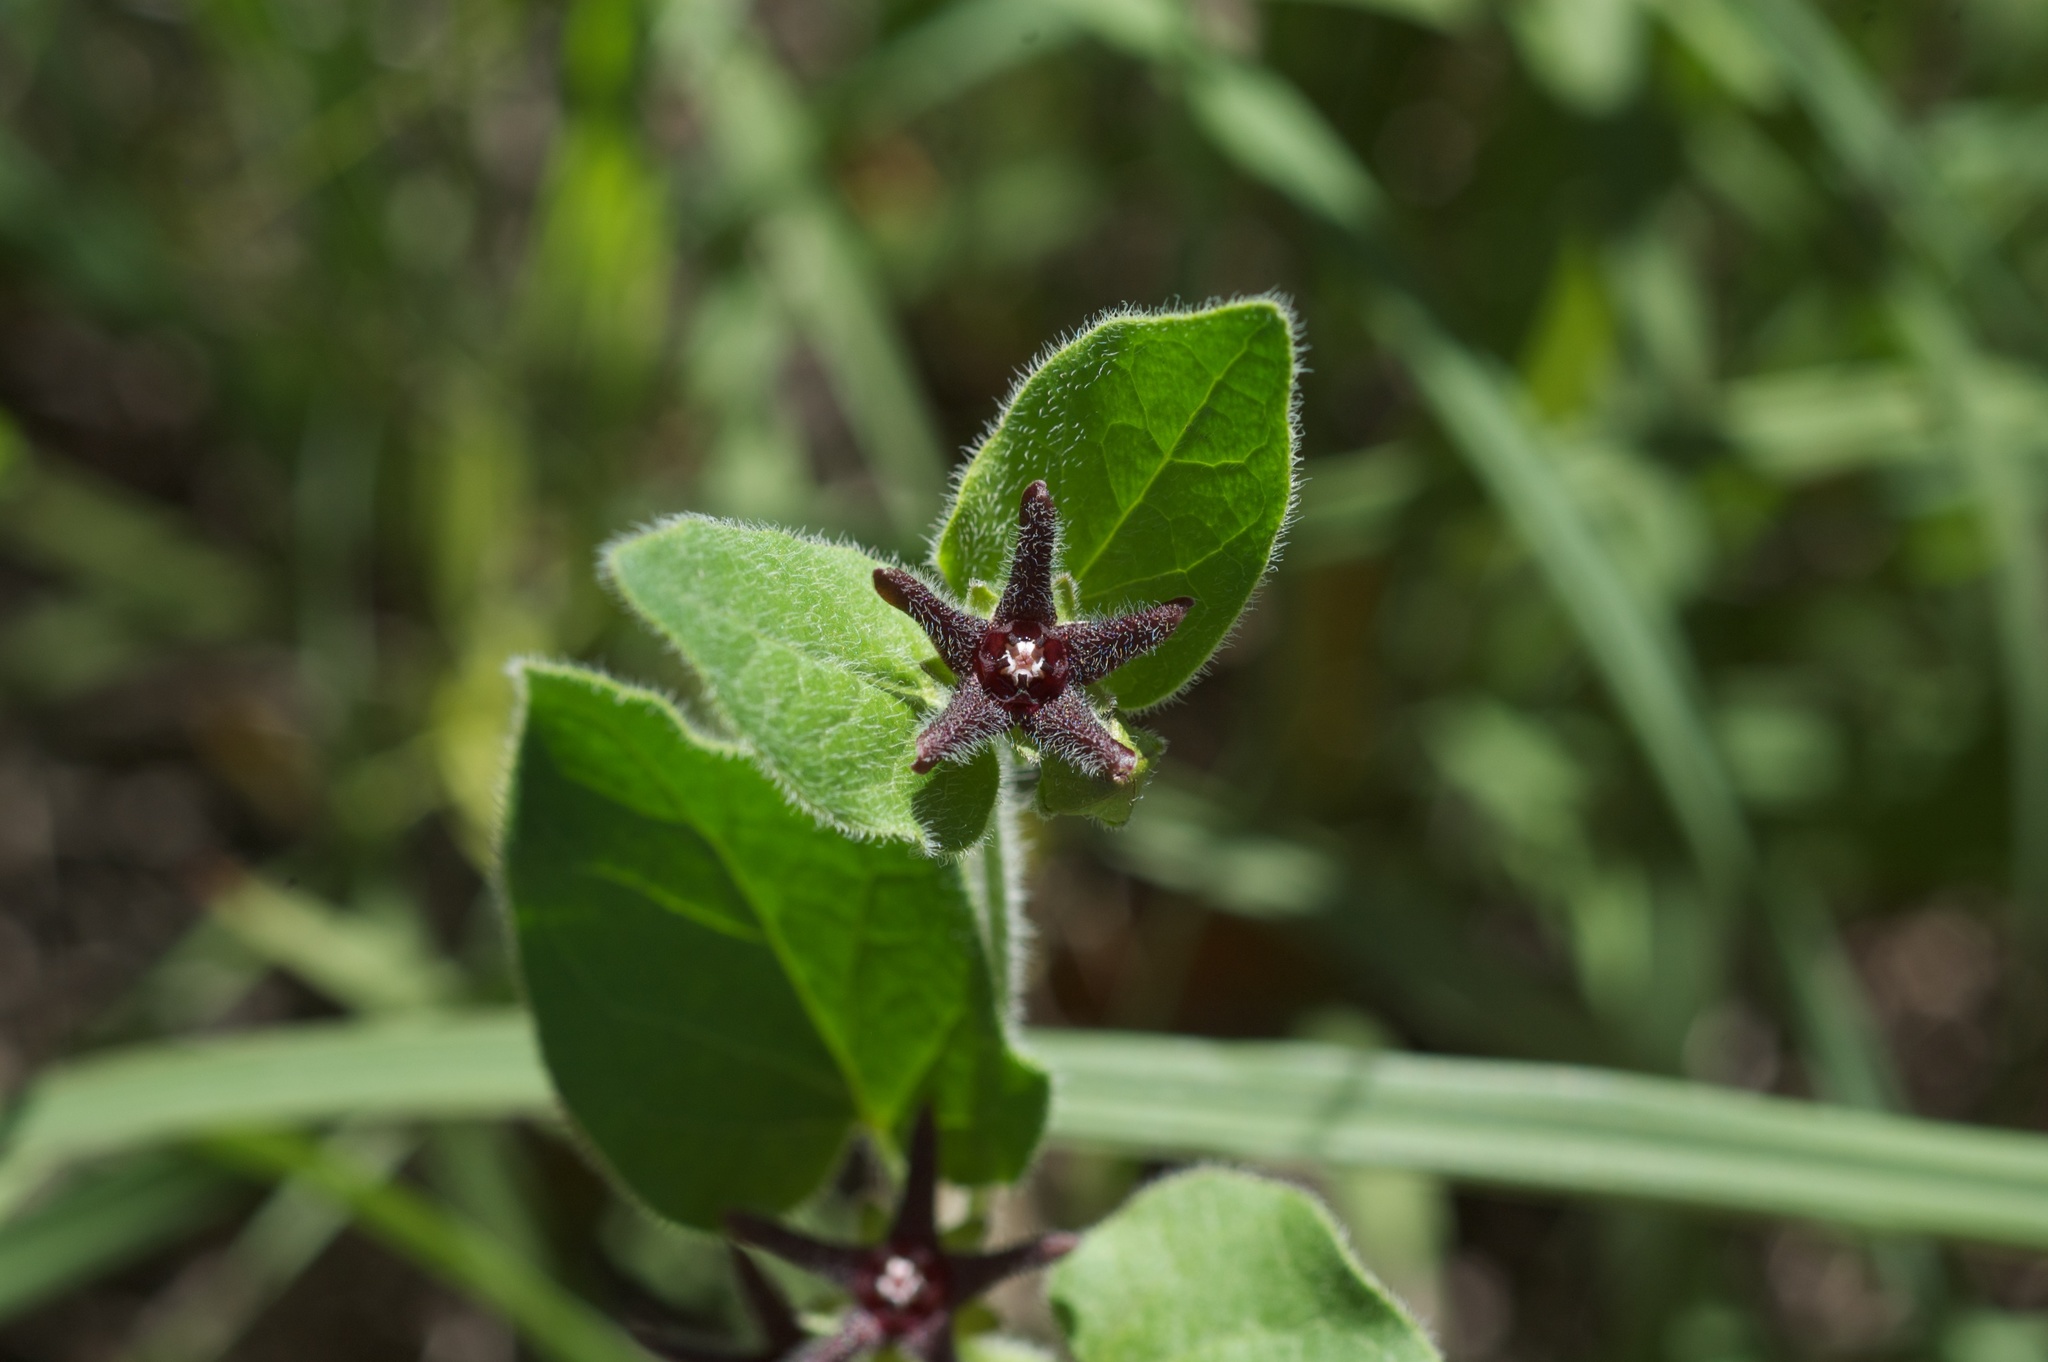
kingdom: Plantae
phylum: Tracheophyta
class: Magnoliopsida
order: Gentianales
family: Apocynaceae
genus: Chthamalia
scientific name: Chthamalia biflora
